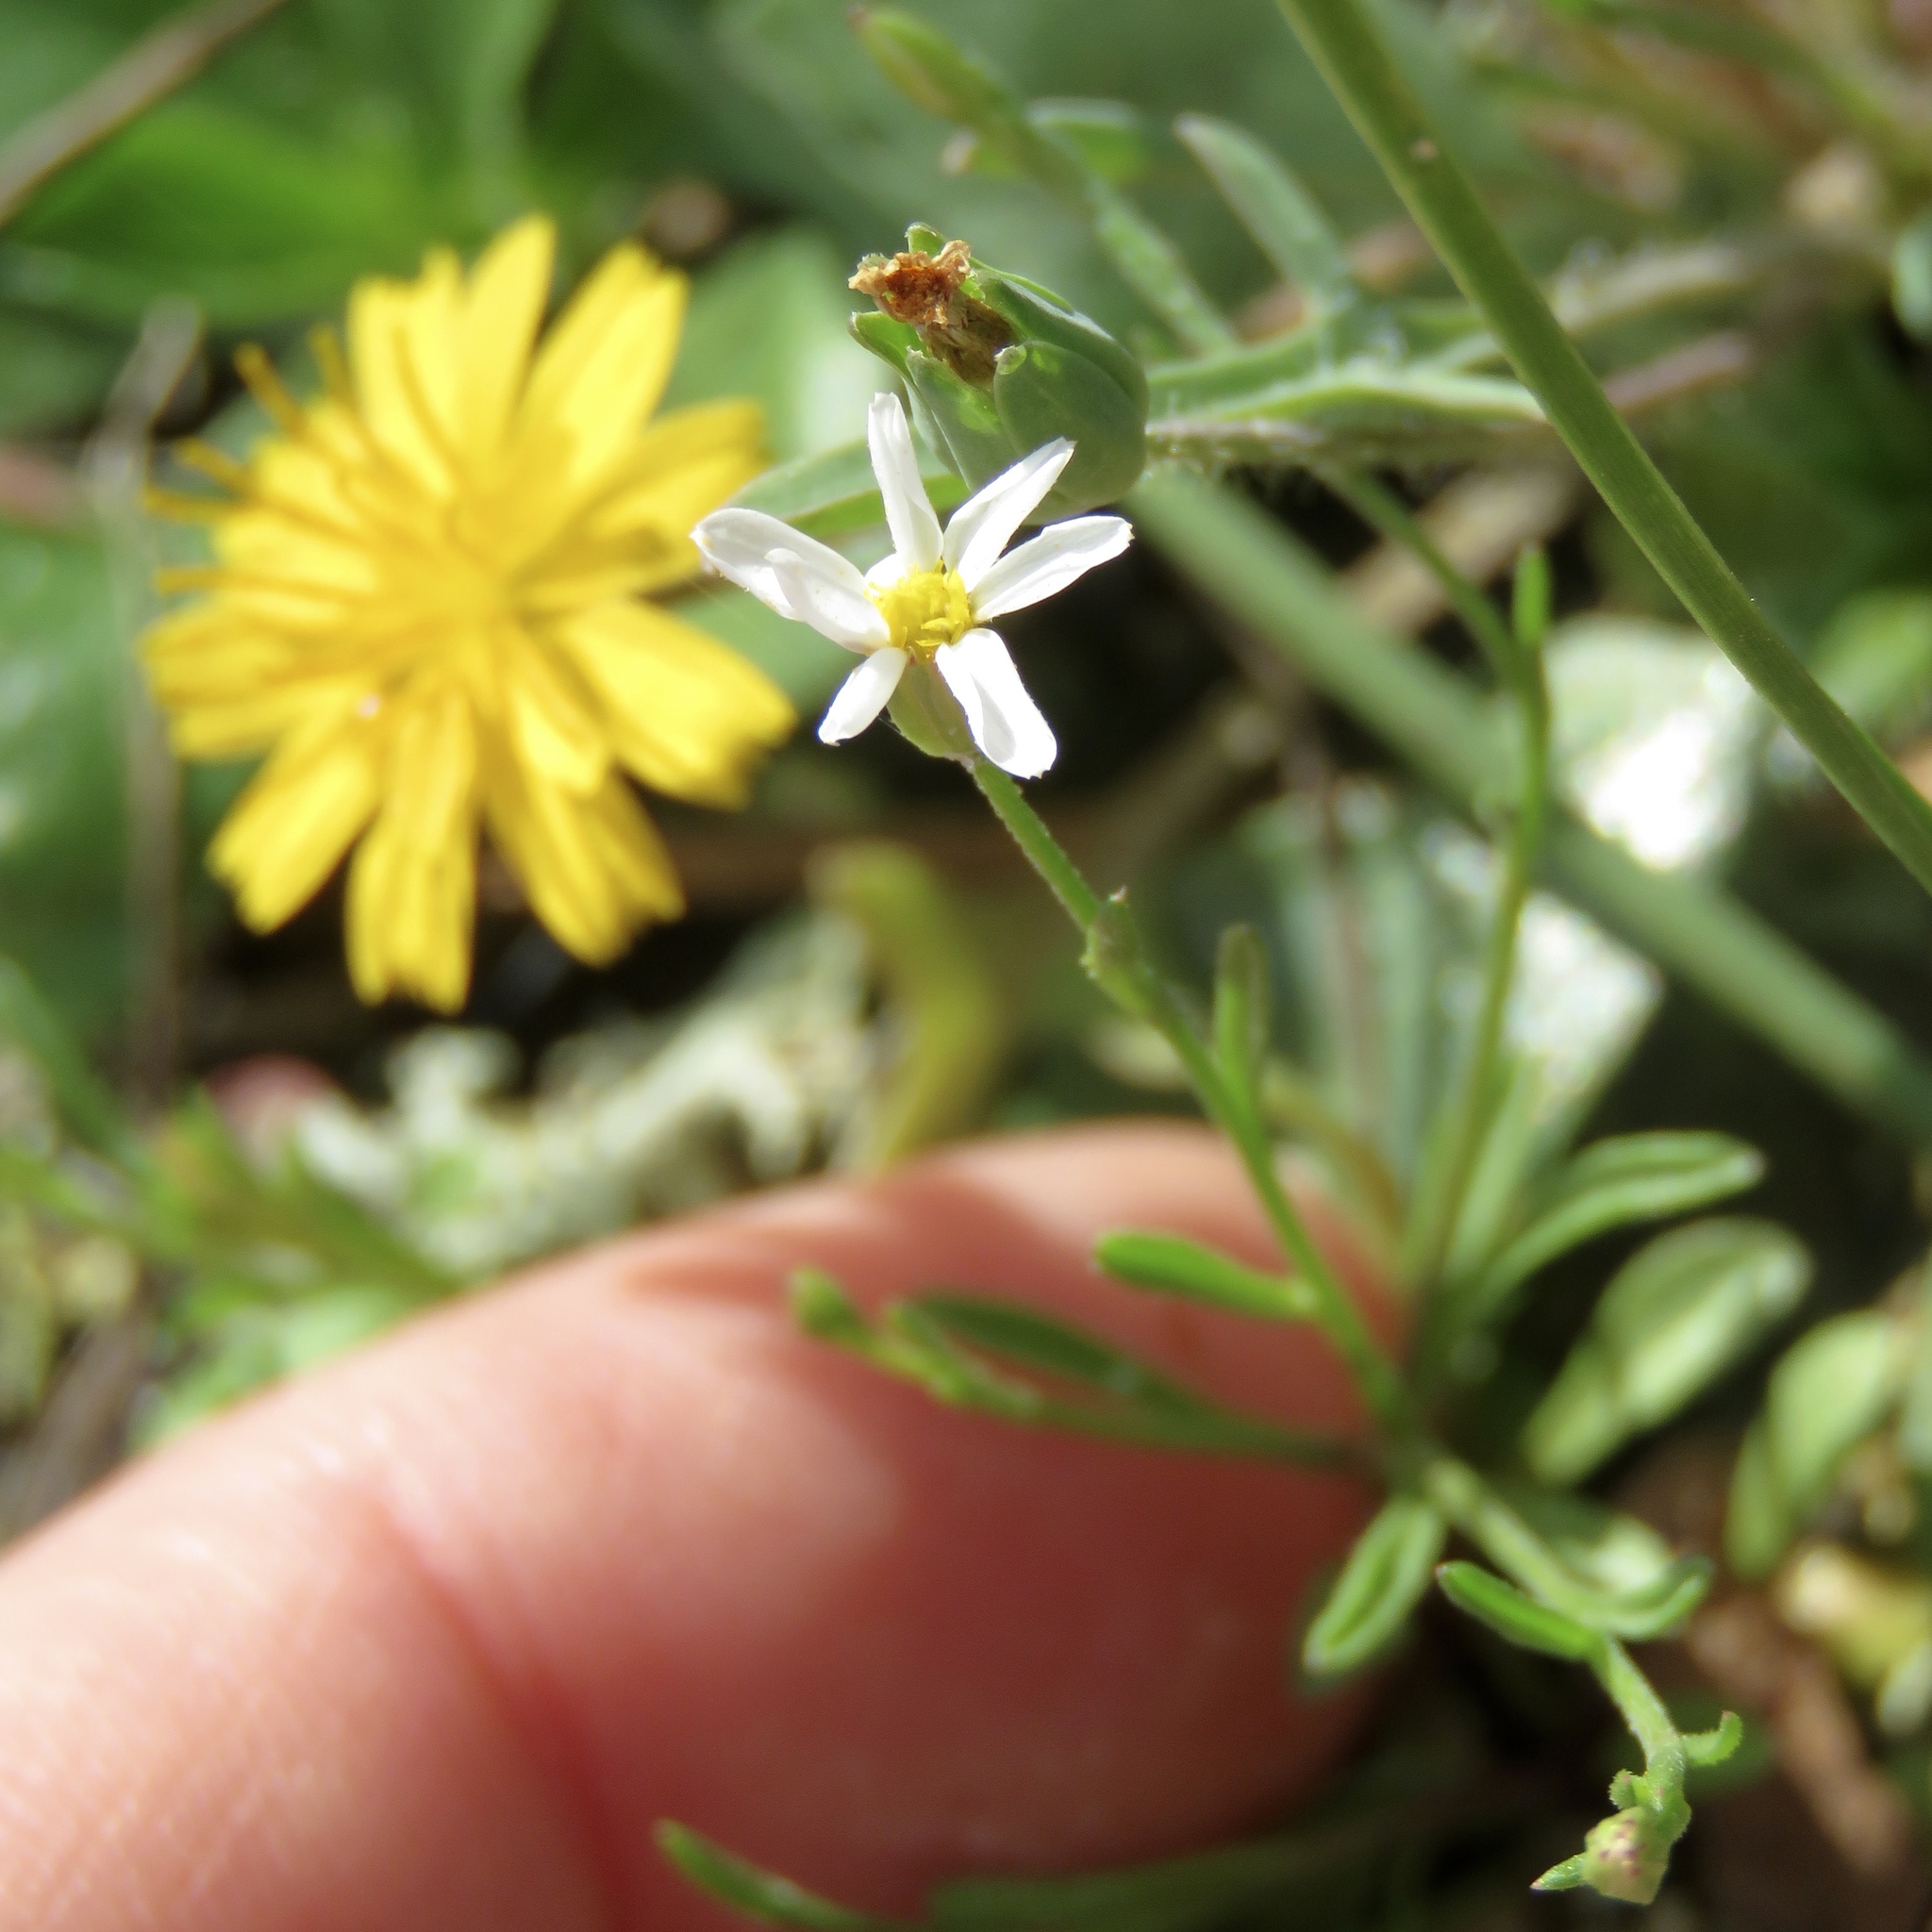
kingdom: Plantae
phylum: Tracheophyta
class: Magnoliopsida
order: Asterales
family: Asteraceae
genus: Chaetopappa
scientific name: Chaetopappa asteroides
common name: Tiny lazy daisy
